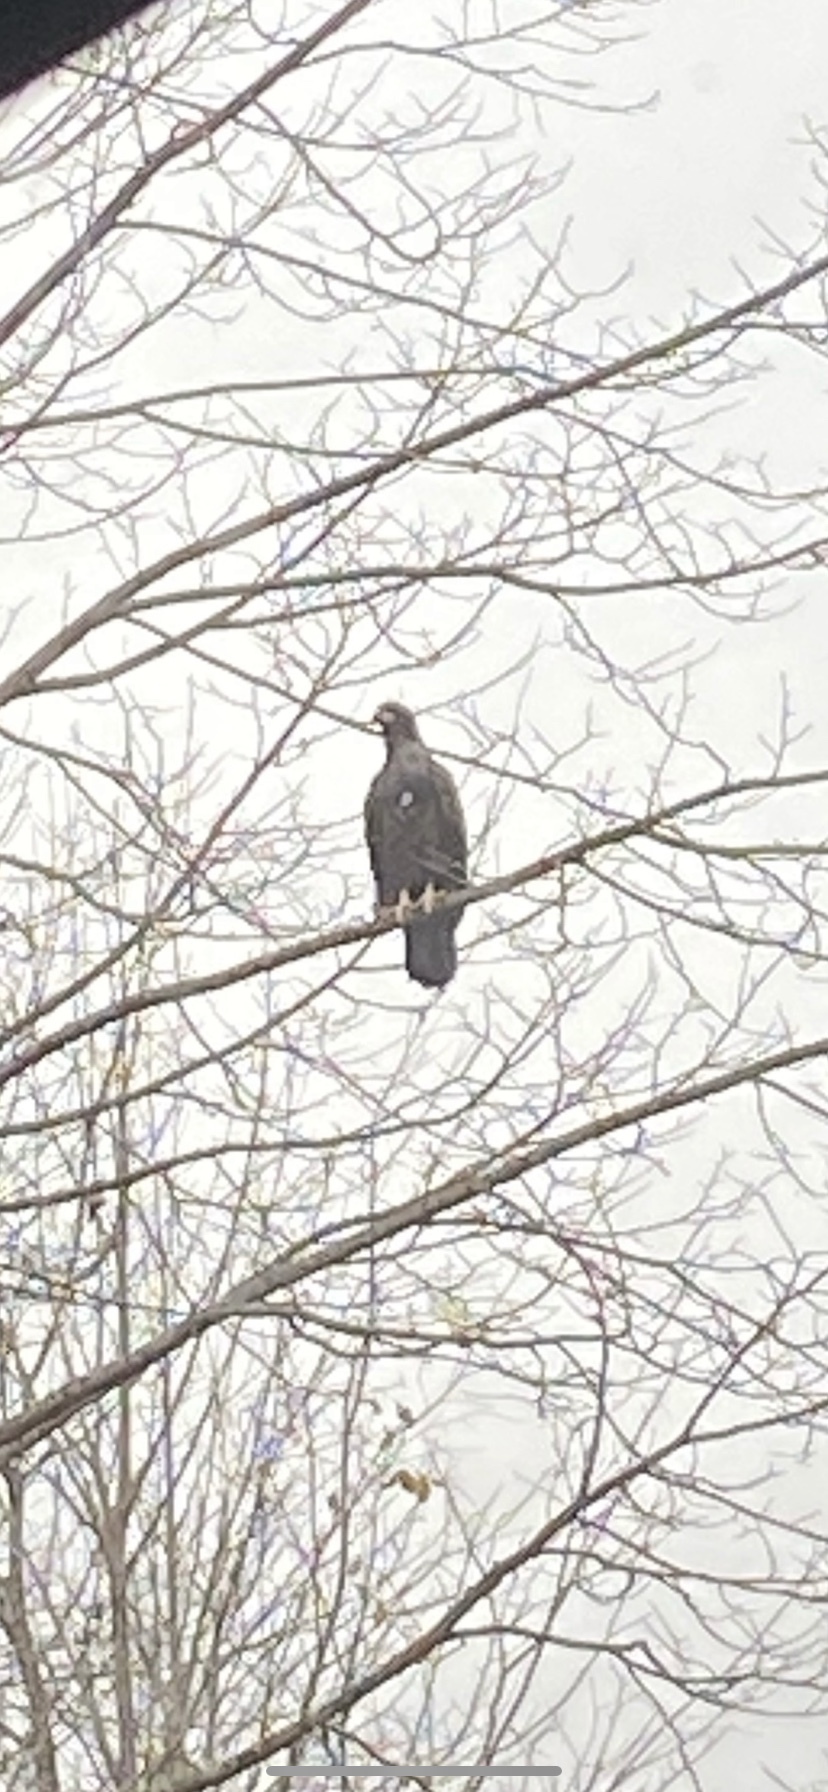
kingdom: Animalia
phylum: Chordata
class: Aves
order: Accipitriformes
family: Accipitridae
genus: Haliaeetus
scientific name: Haliaeetus leucocephalus
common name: Bald eagle
